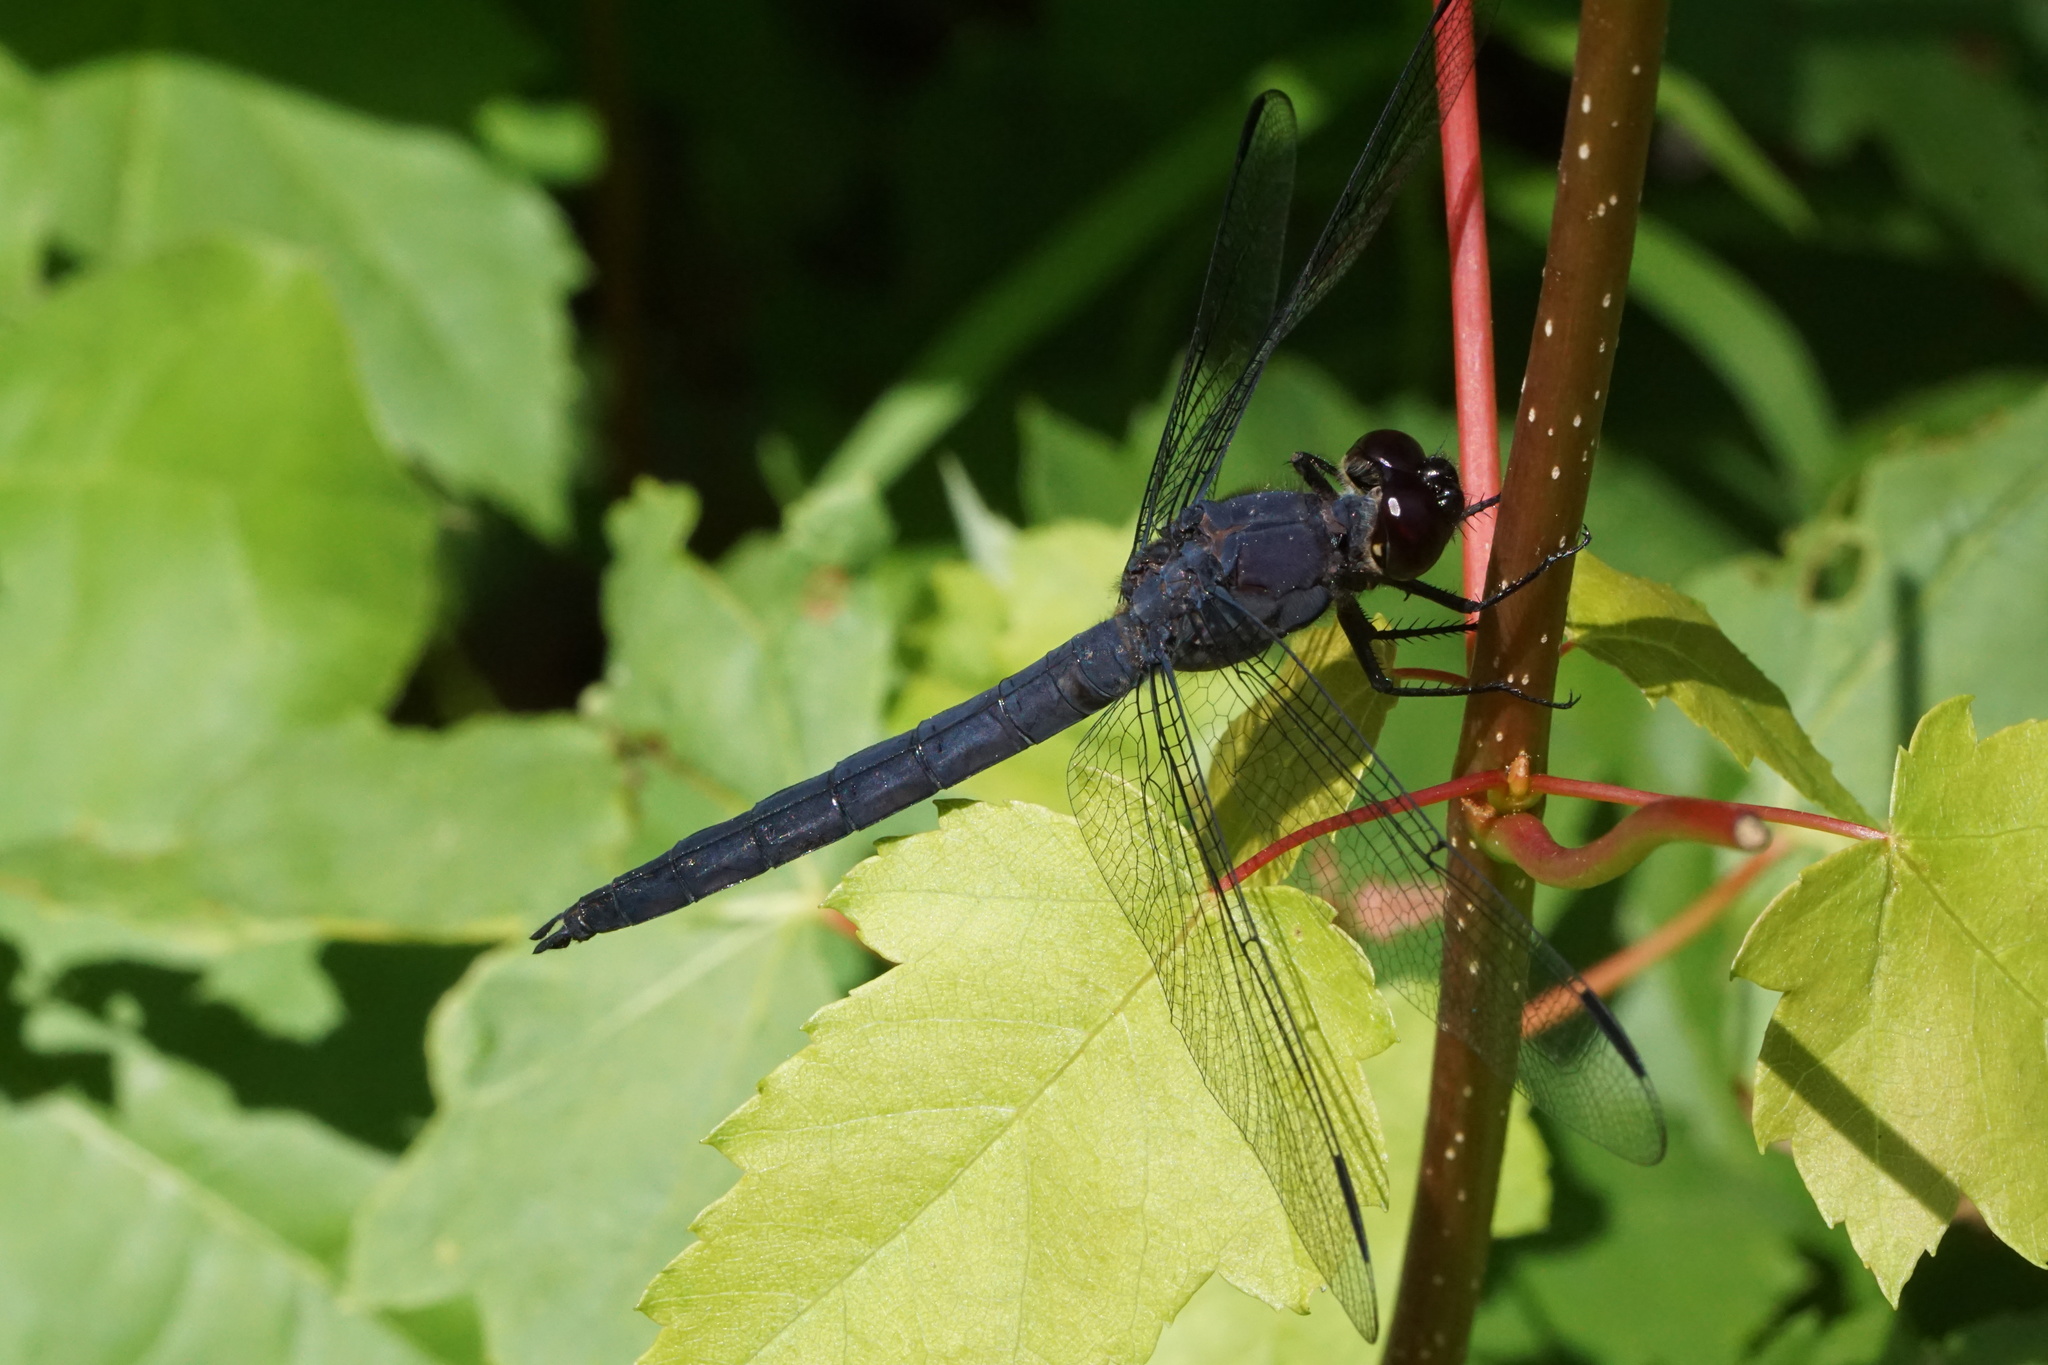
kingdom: Animalia
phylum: Arthropoda
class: Insecta
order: Odonata
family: Libellulidae
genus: Libellula
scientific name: Libellula incesta
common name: Slaty skimmer
